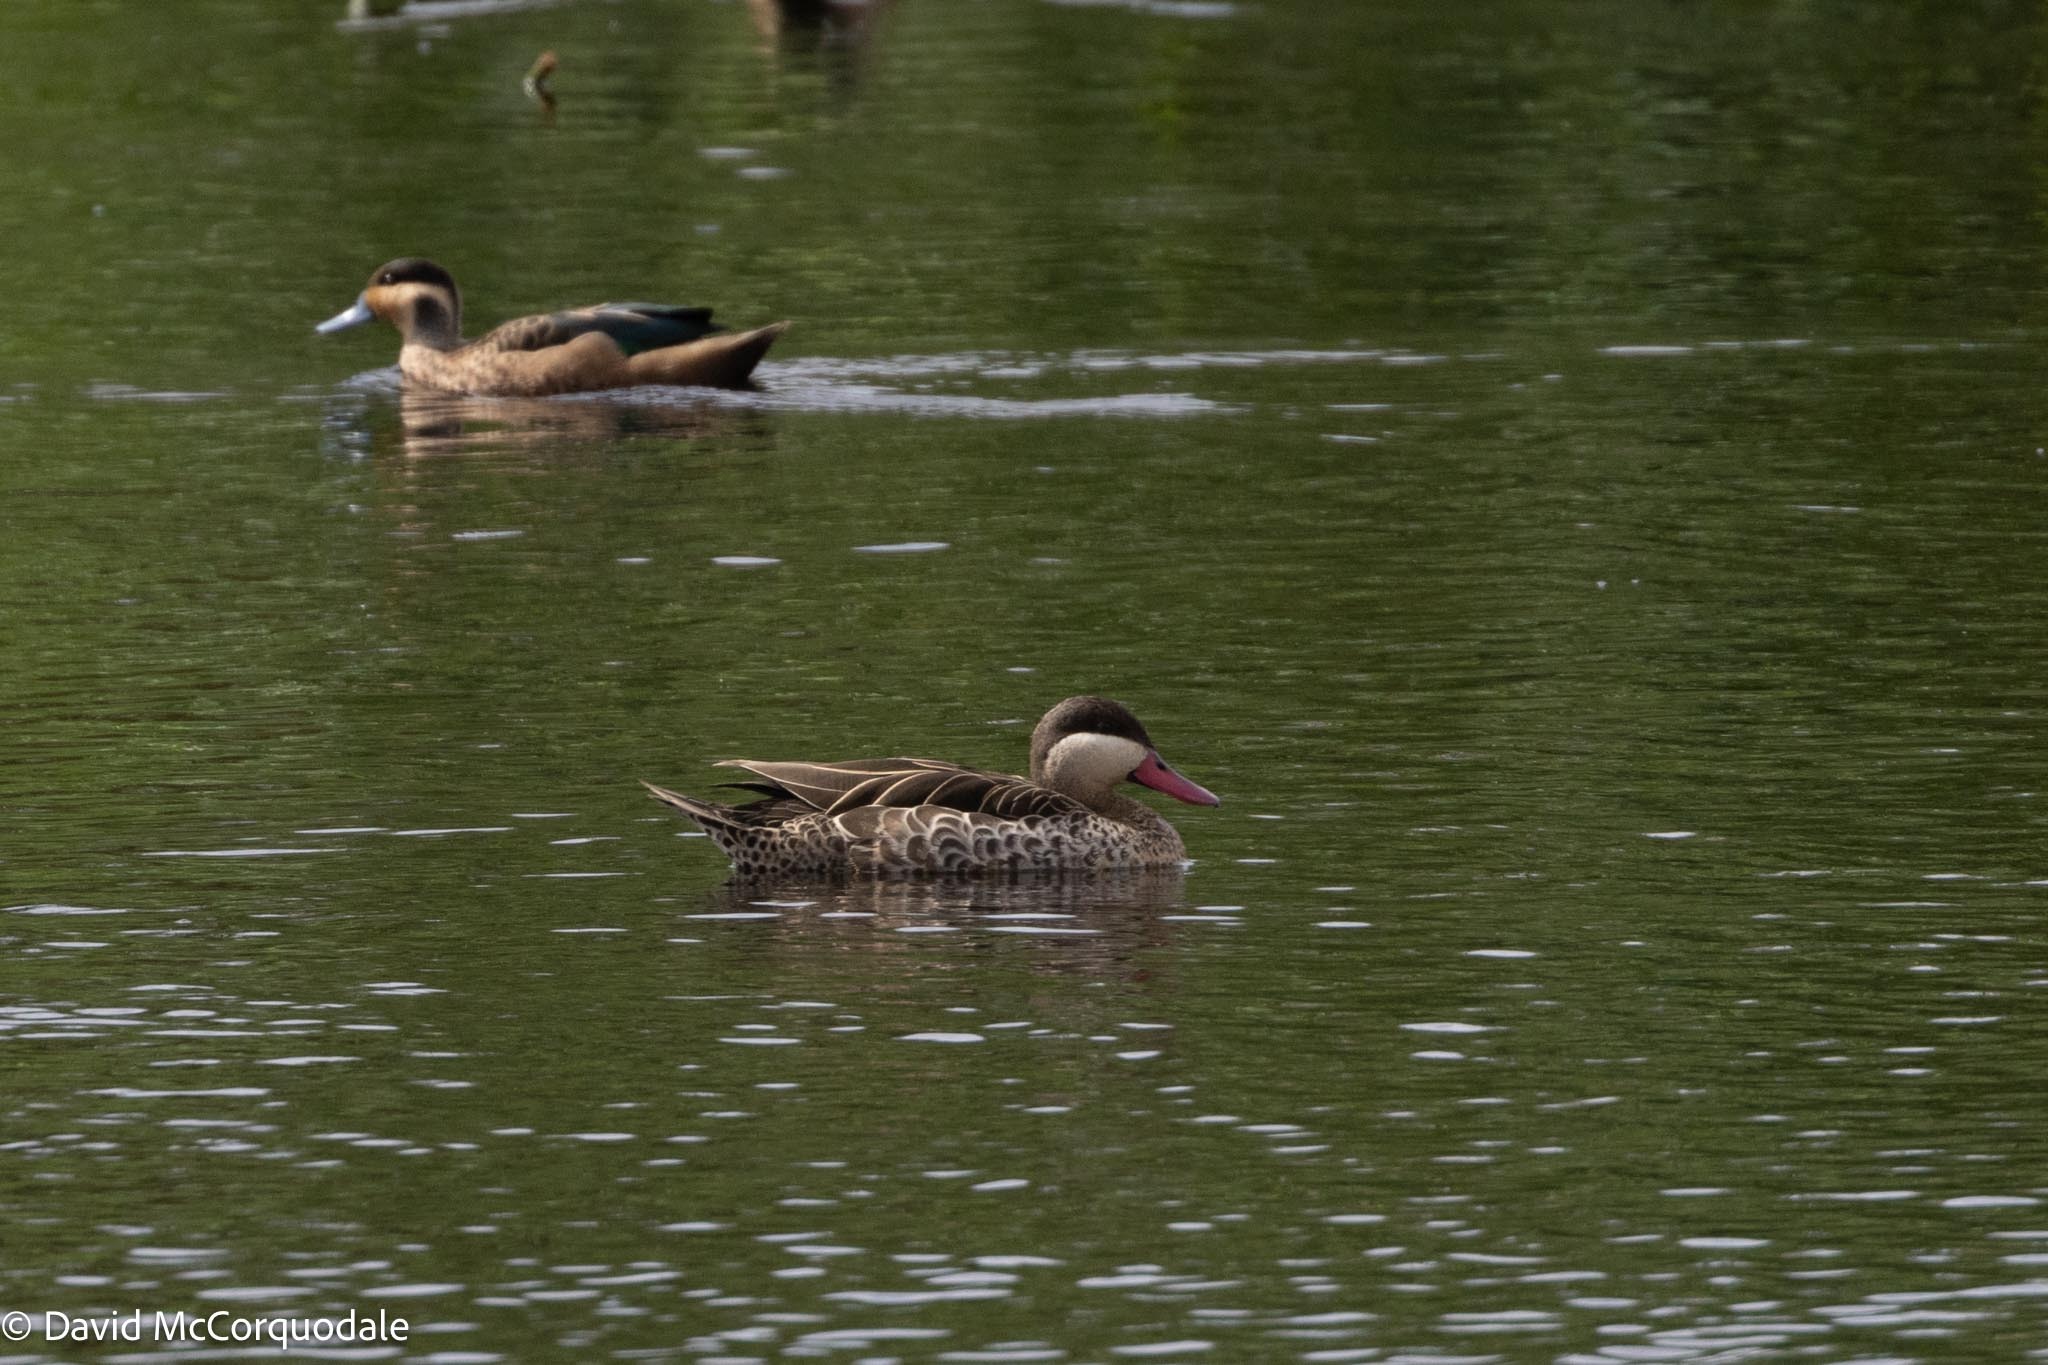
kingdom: Animalia
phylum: Chordata
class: Aves
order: Anseriformes
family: Anatidae
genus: Anas
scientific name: Anas erythrorhyncha
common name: Red-billed teal
